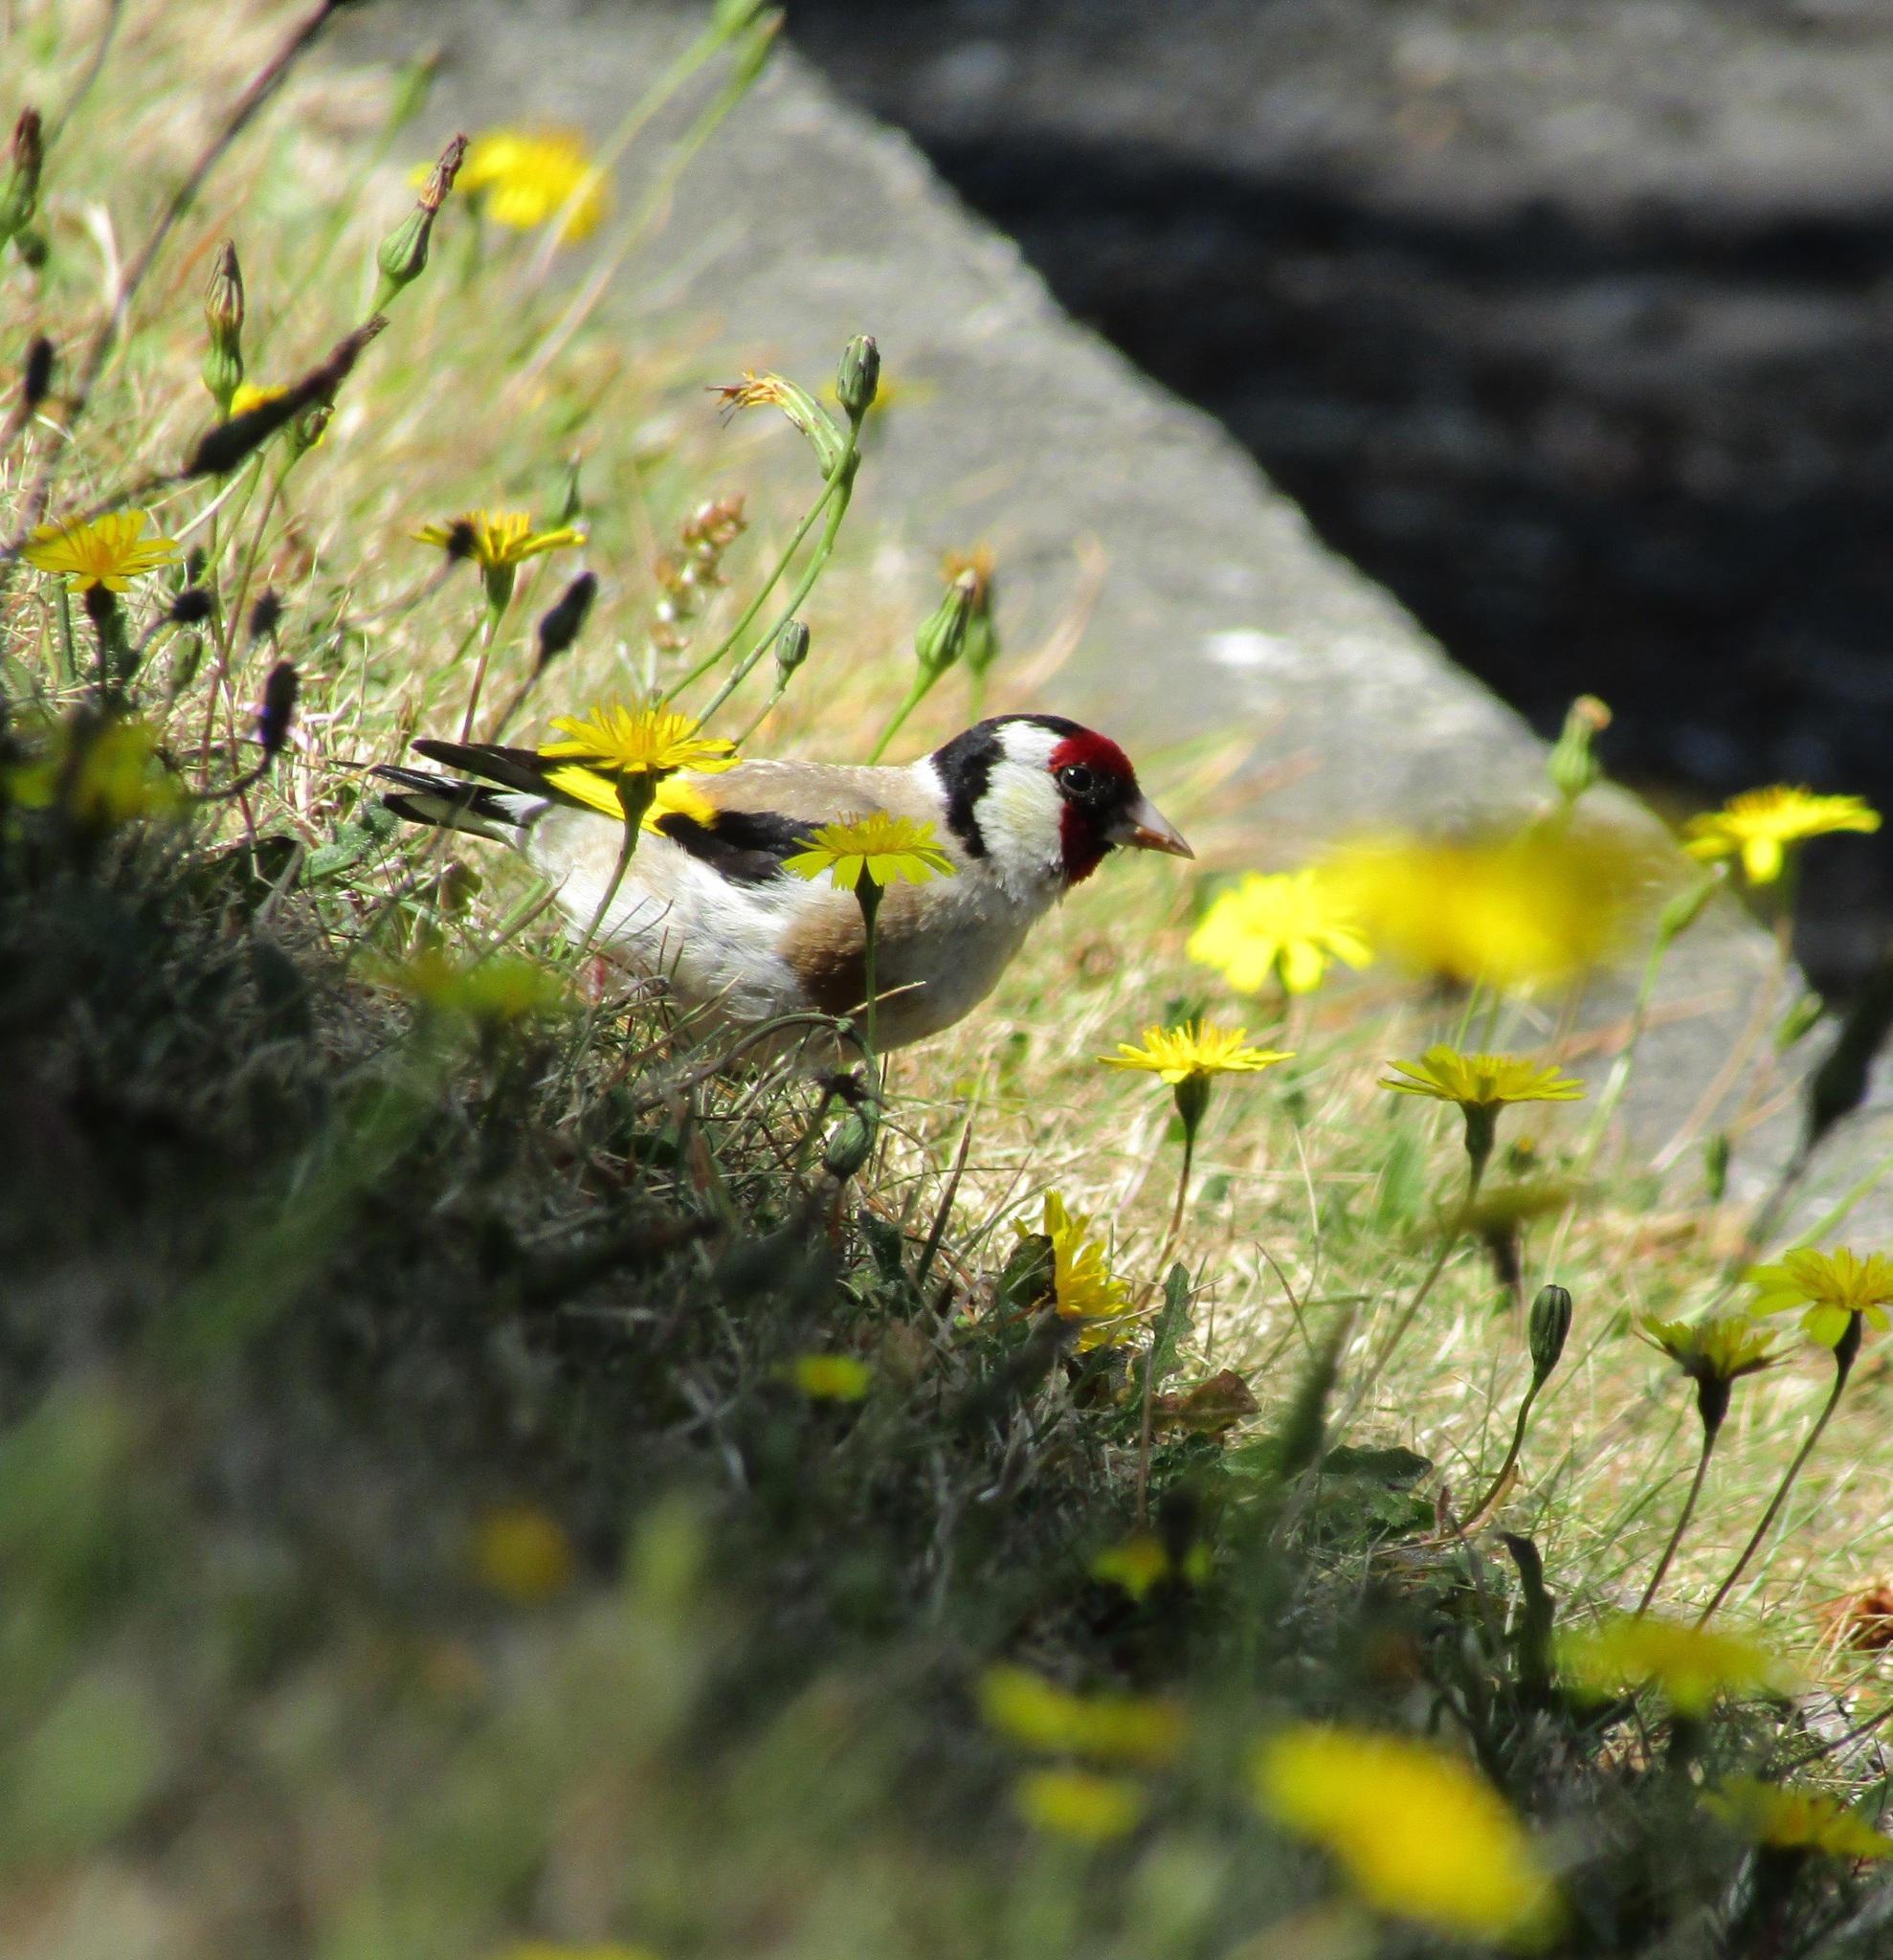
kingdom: Animalia
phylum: Chordata
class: Aves
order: Passeriformes
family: Fringillidae
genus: Carduelis
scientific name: Carduelis carduelis
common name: European goldfinch
